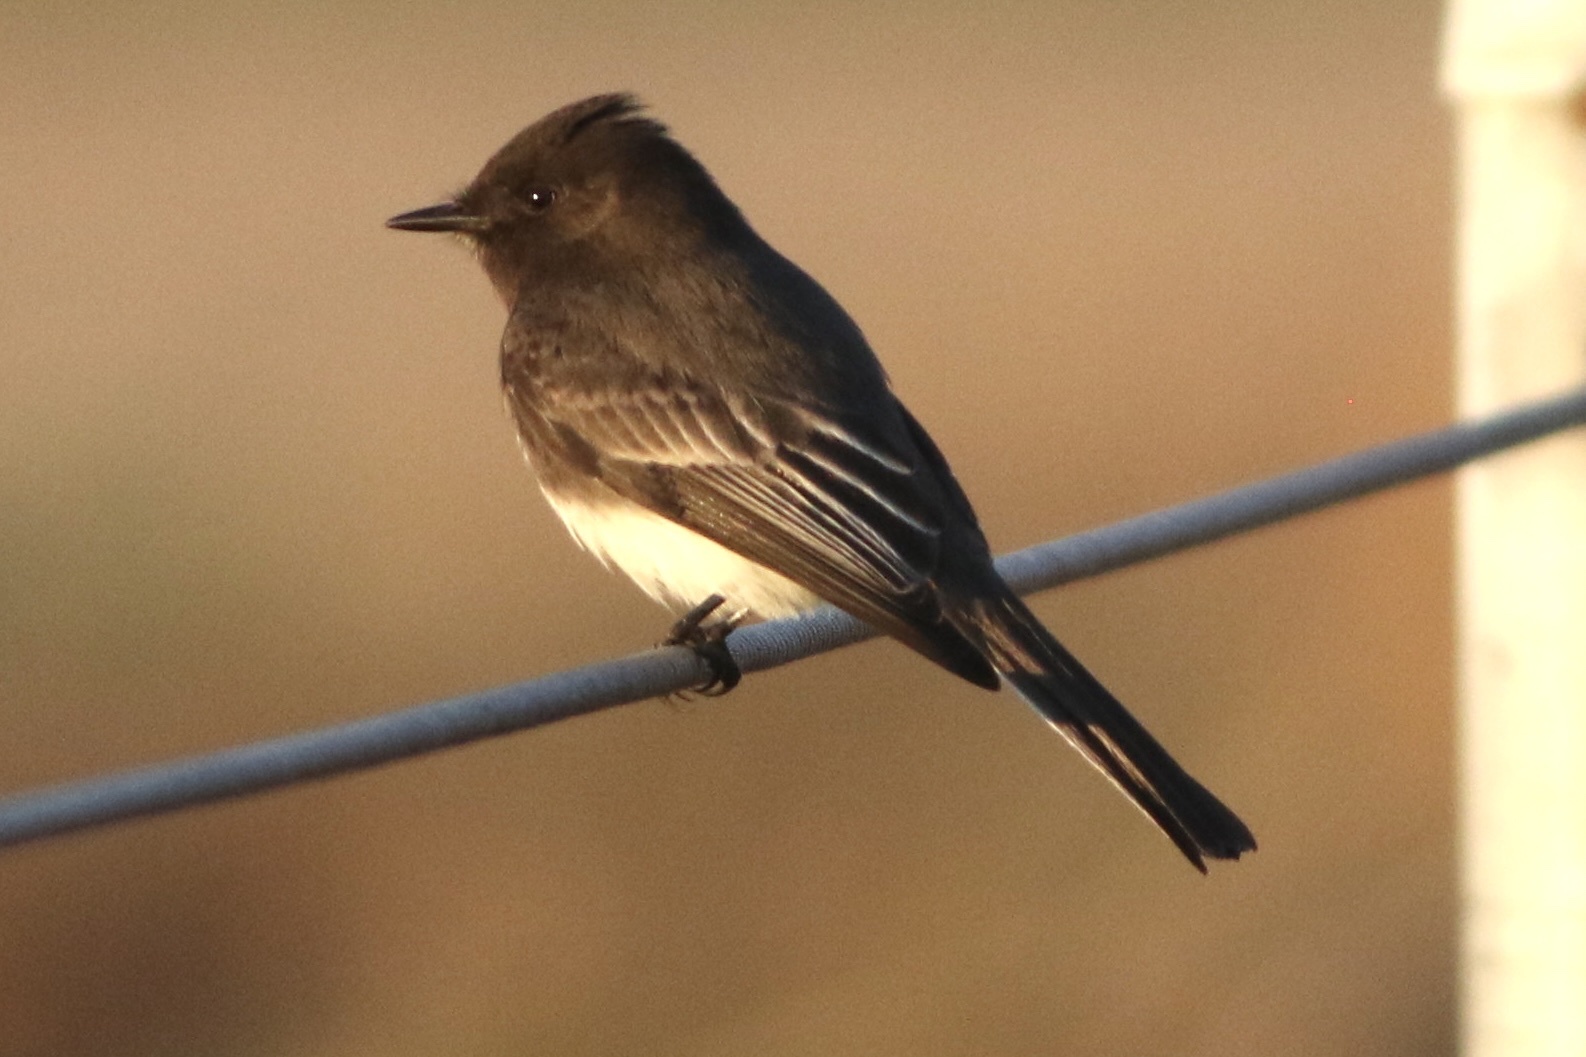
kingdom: Animalia
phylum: Chordata
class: Aves
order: Passeriformes
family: Tyrannidae
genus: Sayornis
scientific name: Sayornis nigricans
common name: Black phoebe
